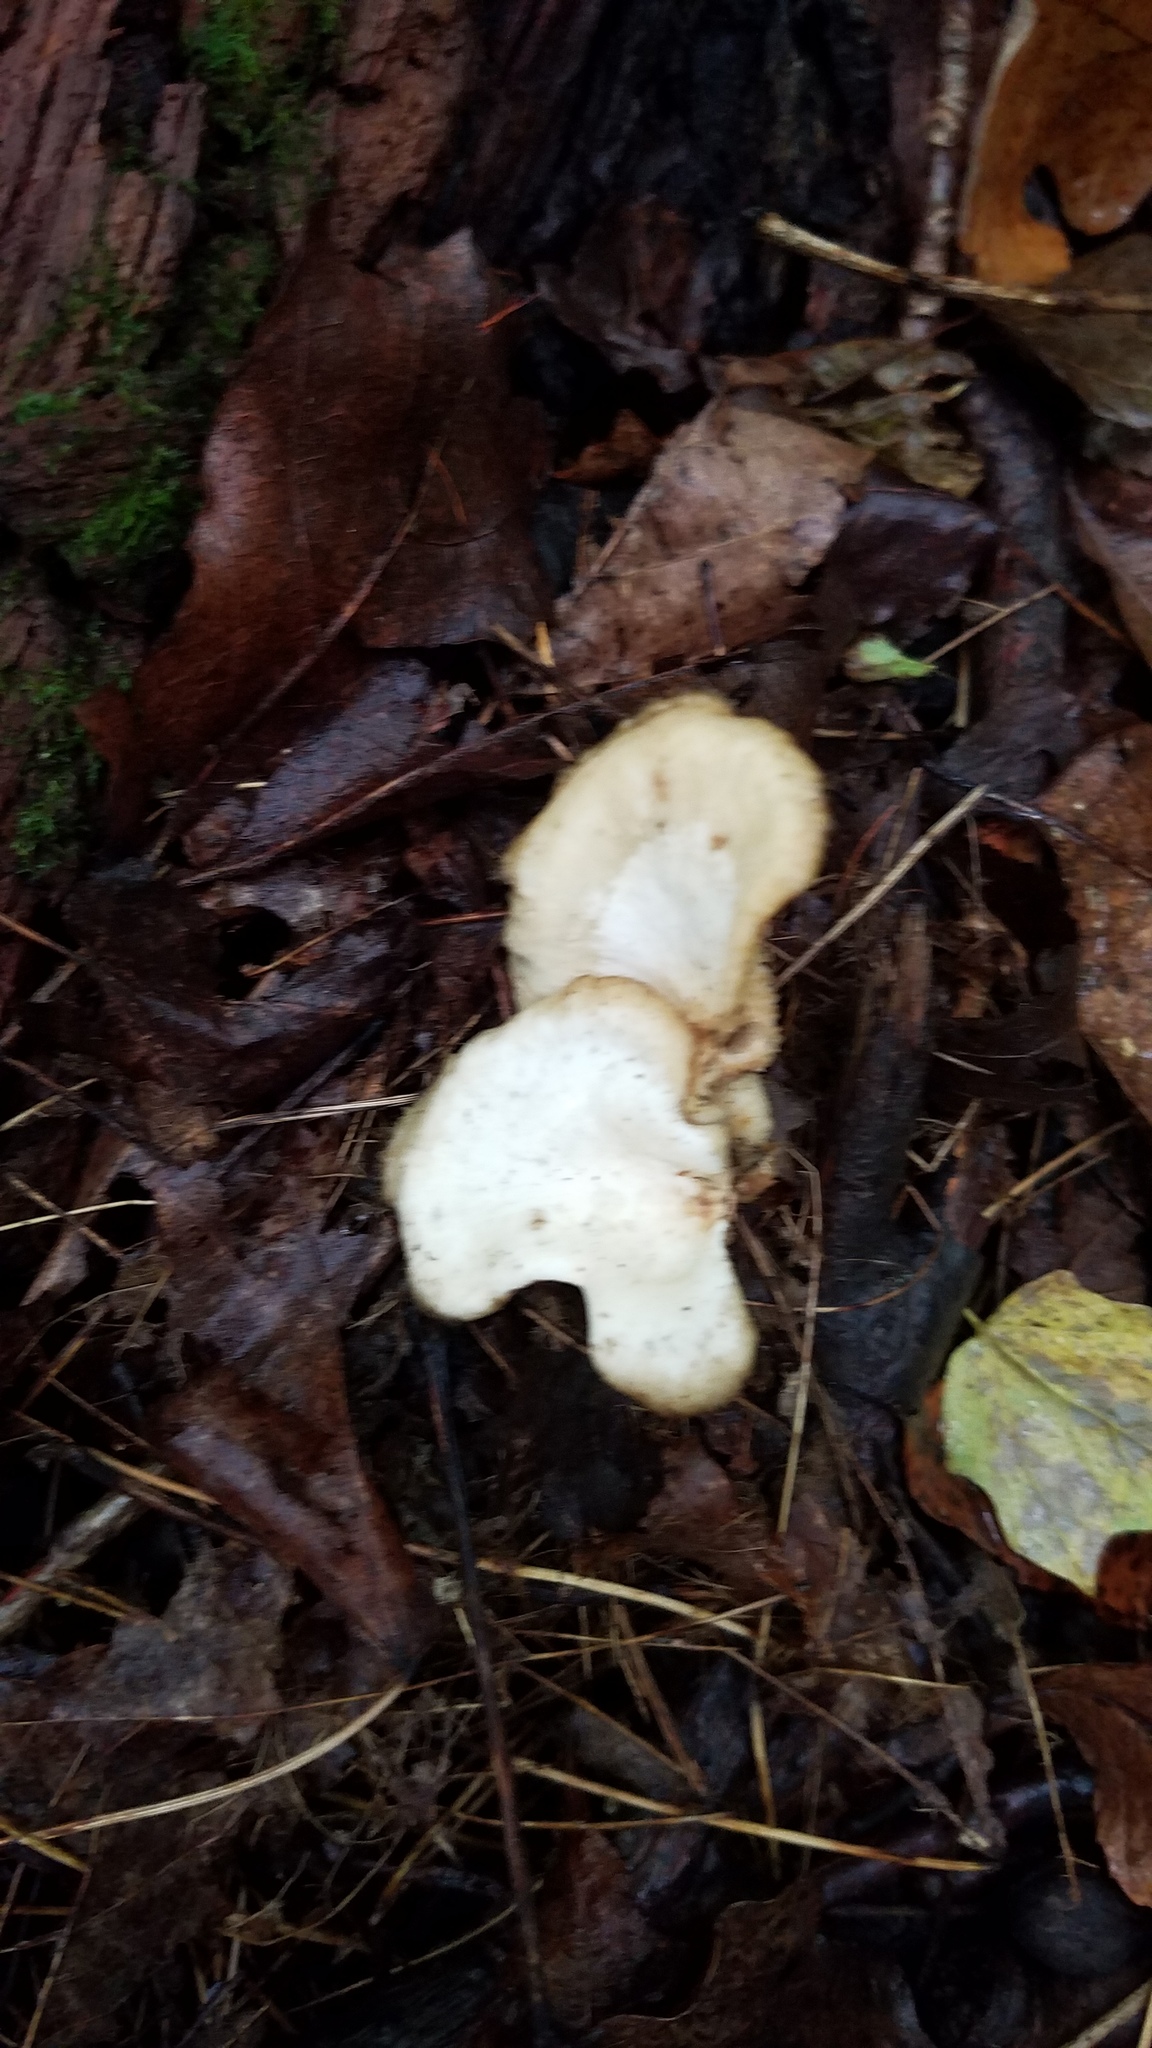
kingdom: Fungi
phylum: Basidiomycota
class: Agaricomycetes
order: Polyporales
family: Polyporaceae
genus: Neofavolus
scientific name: Neofavolus alveolaris
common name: Hexagonal-pored polypore
